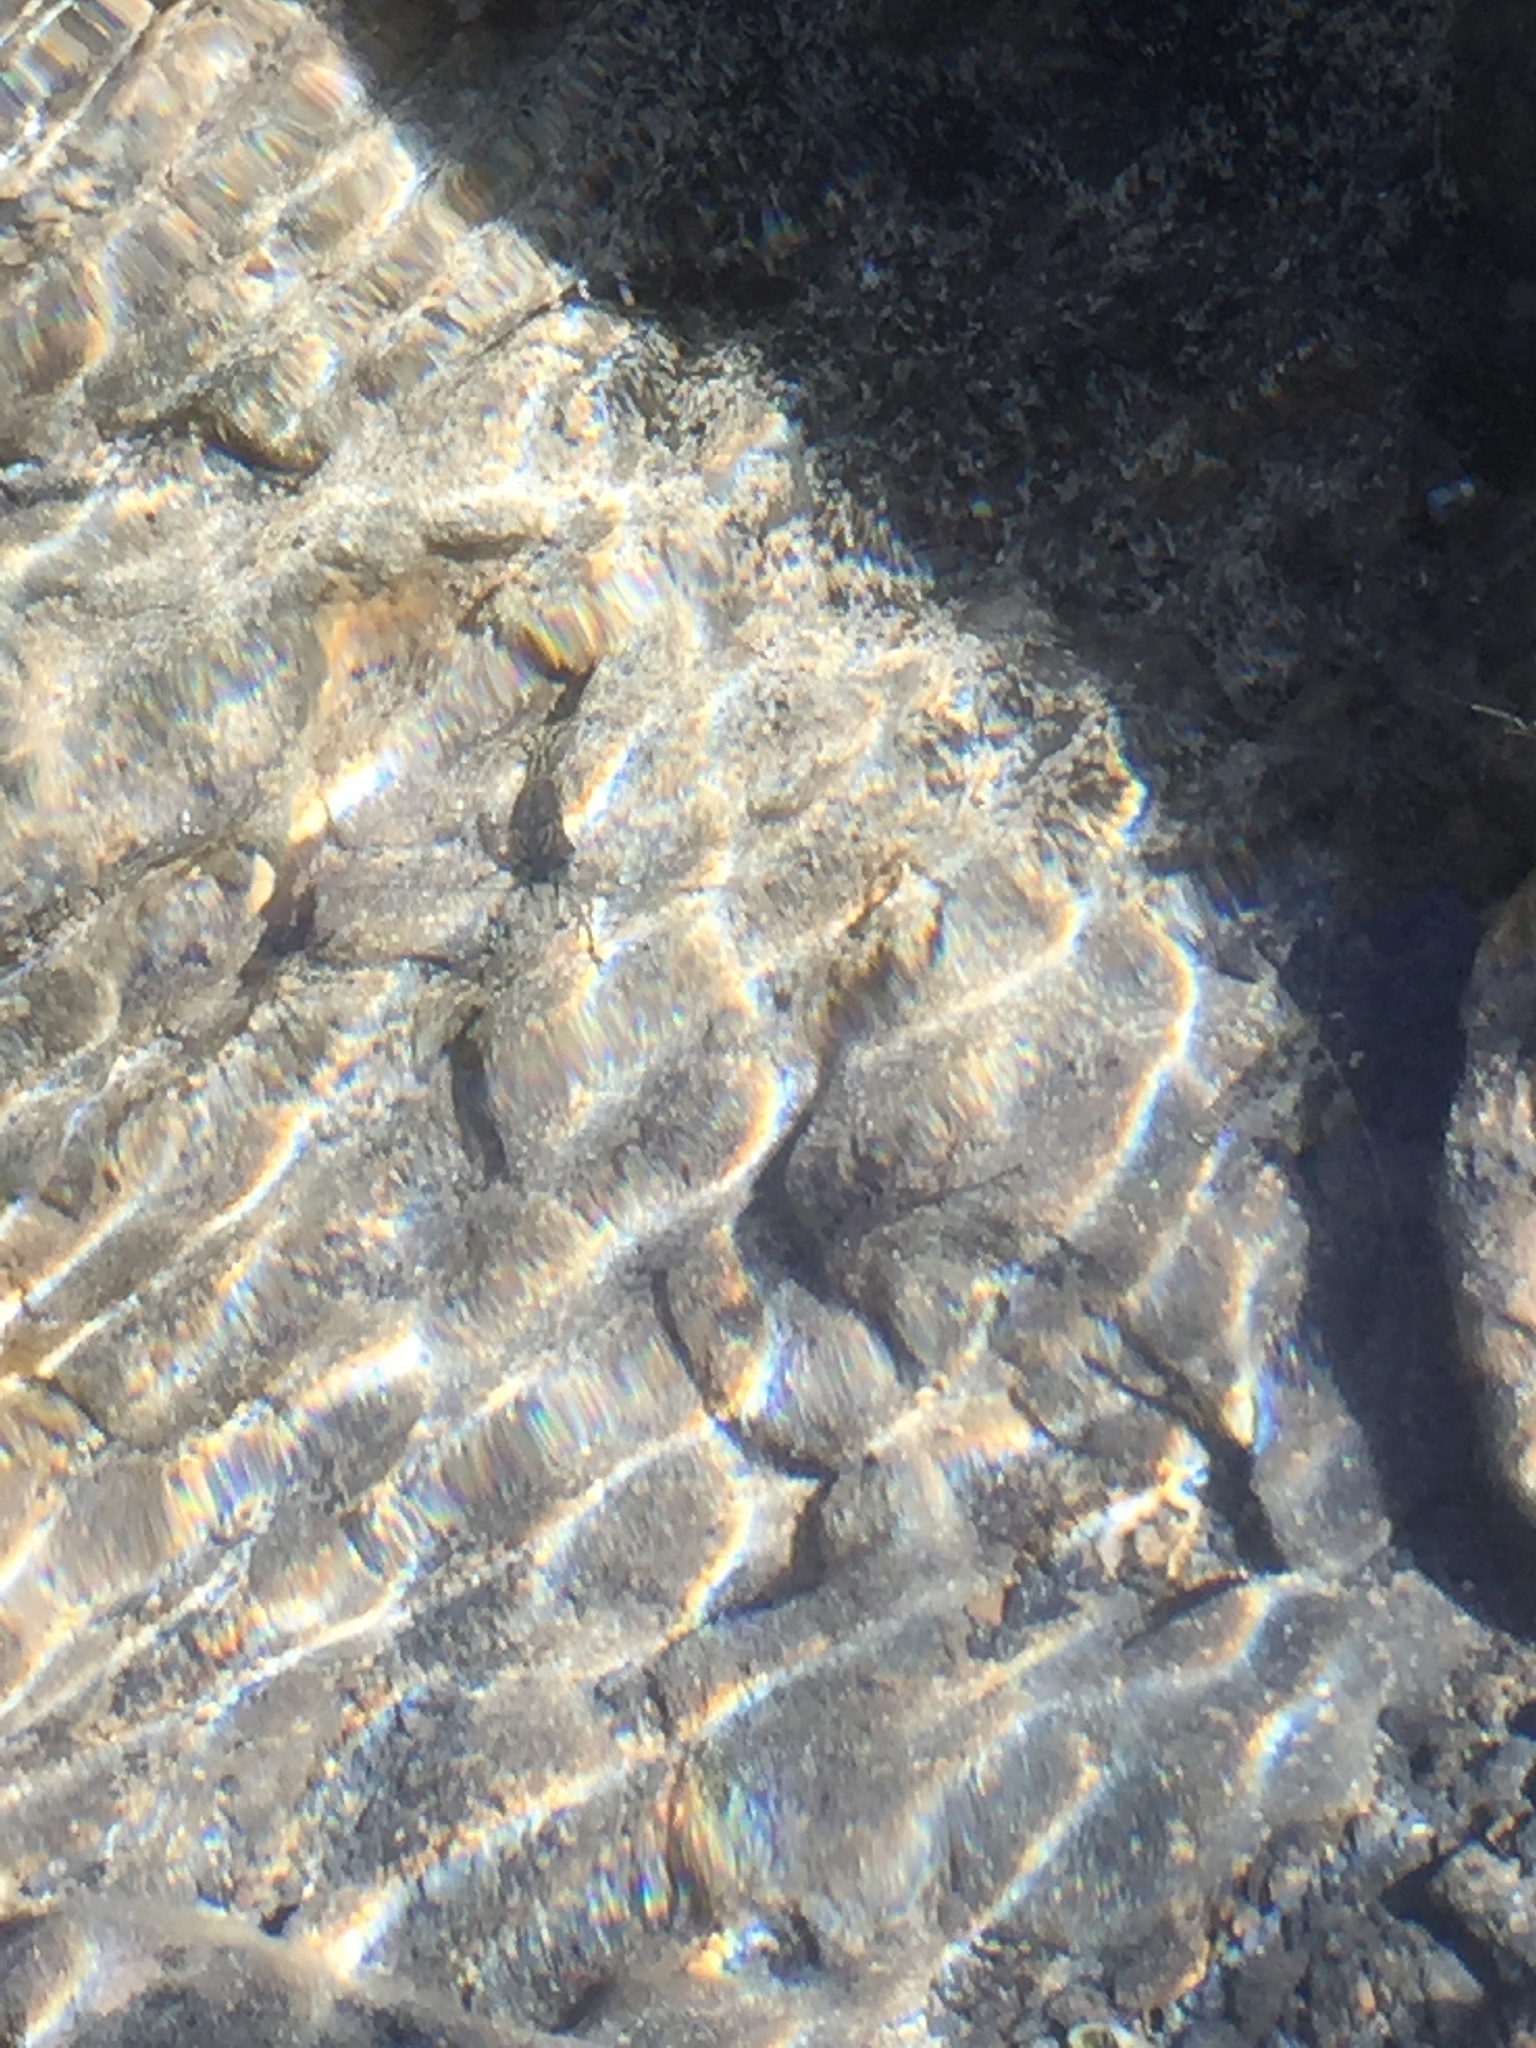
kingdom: Animalia
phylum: Arthropoda
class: Malacostraca
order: Decapoda
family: Palaemonidae
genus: Palaemon
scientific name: Palaemon elegans
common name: Grass prawm
